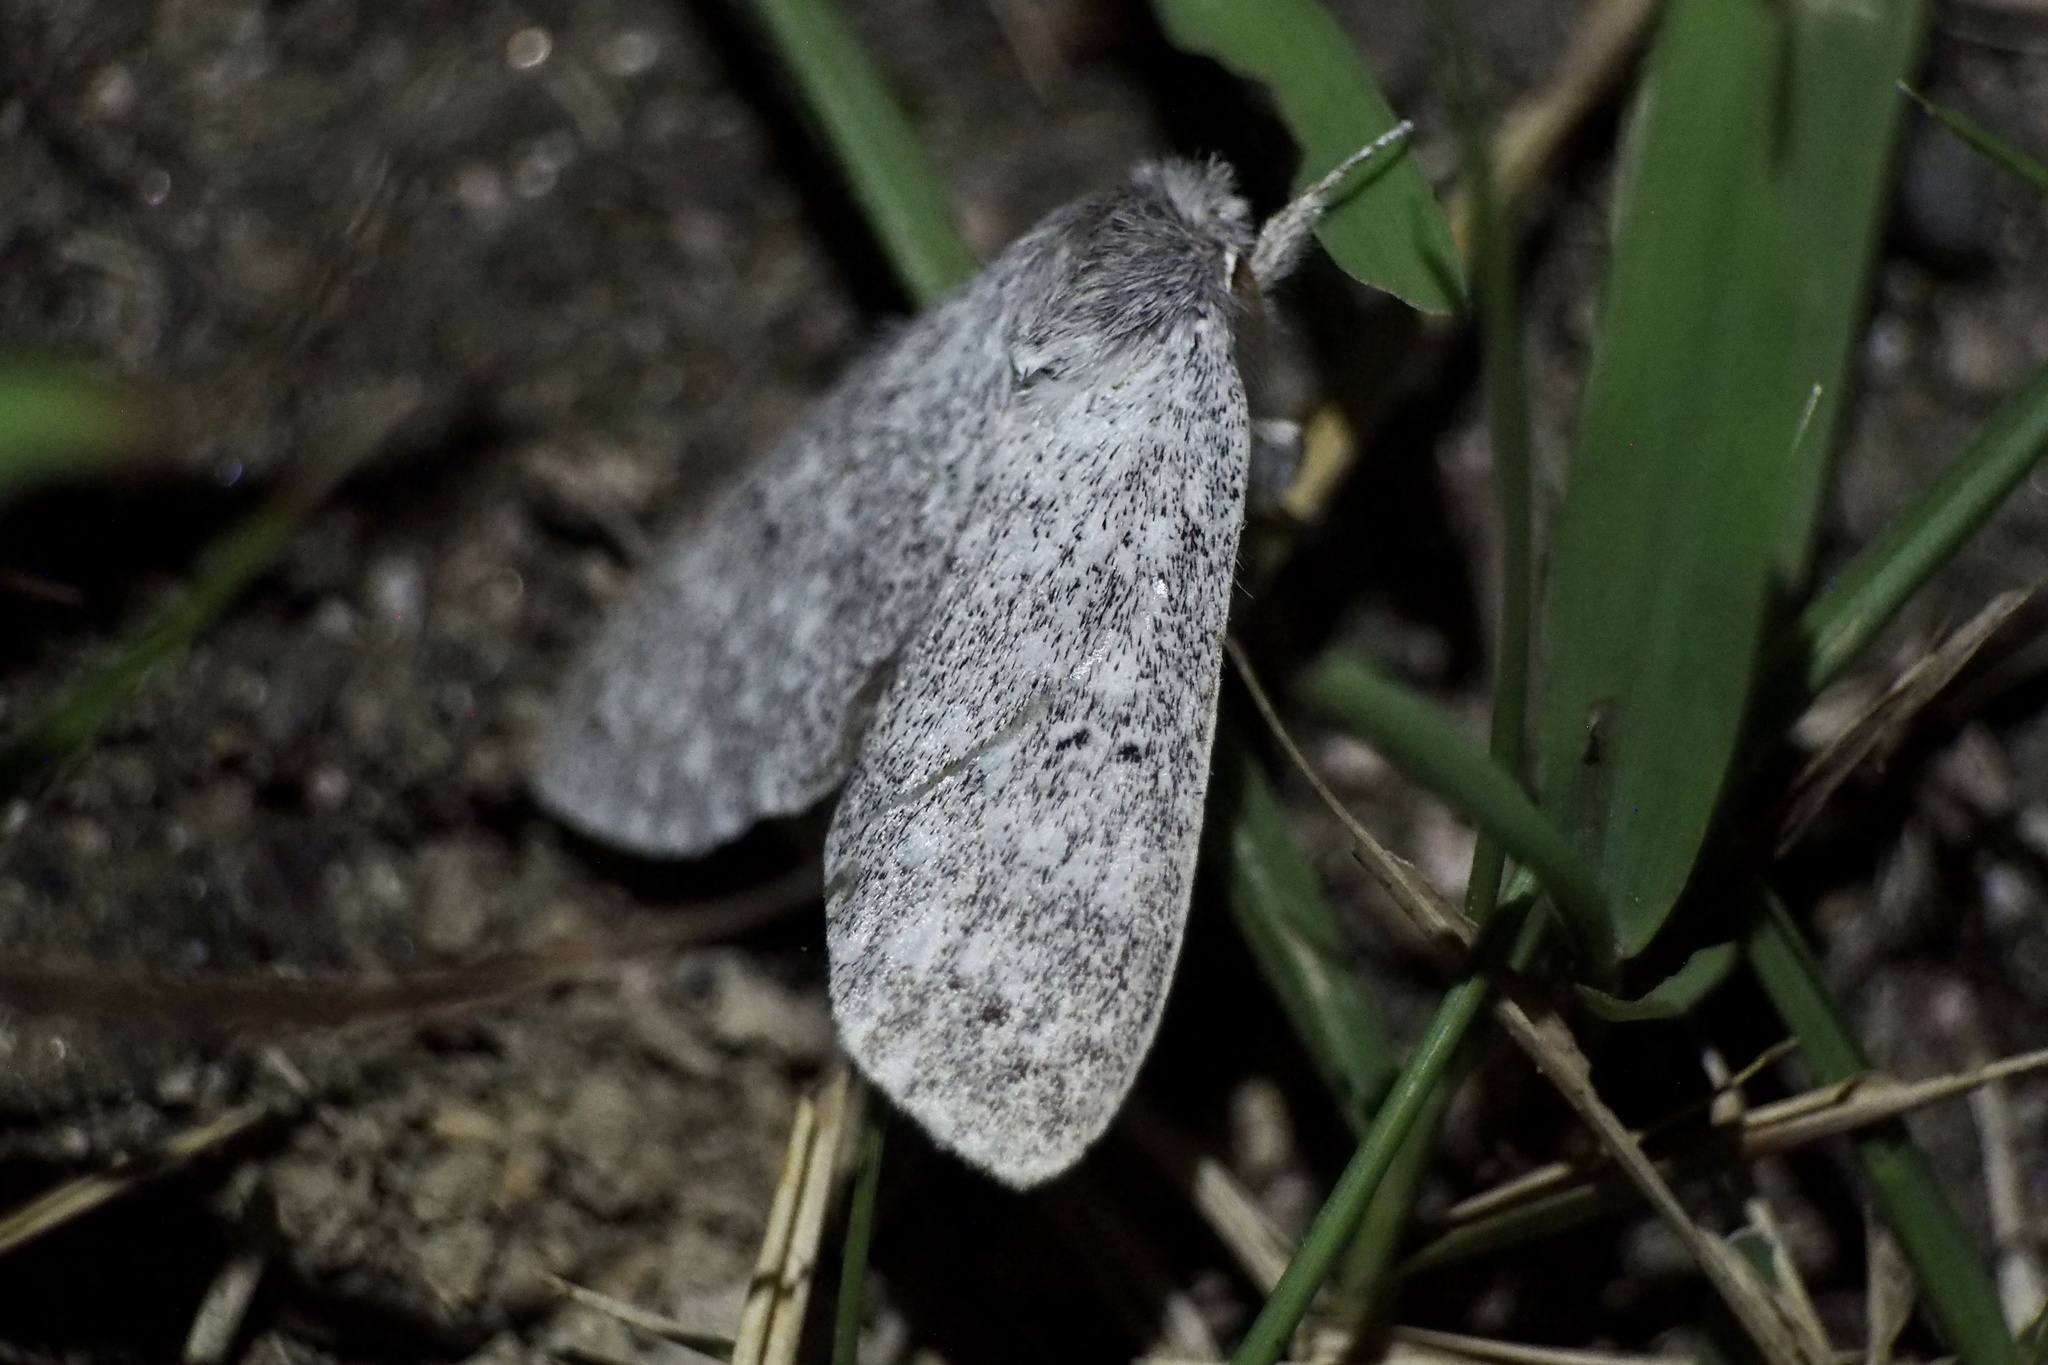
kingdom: Animalia
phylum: Arthropoda
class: Insecta
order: Lepidoptera
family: Notodontidae
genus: Cnethodonta
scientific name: Cnethodonta grisescens
